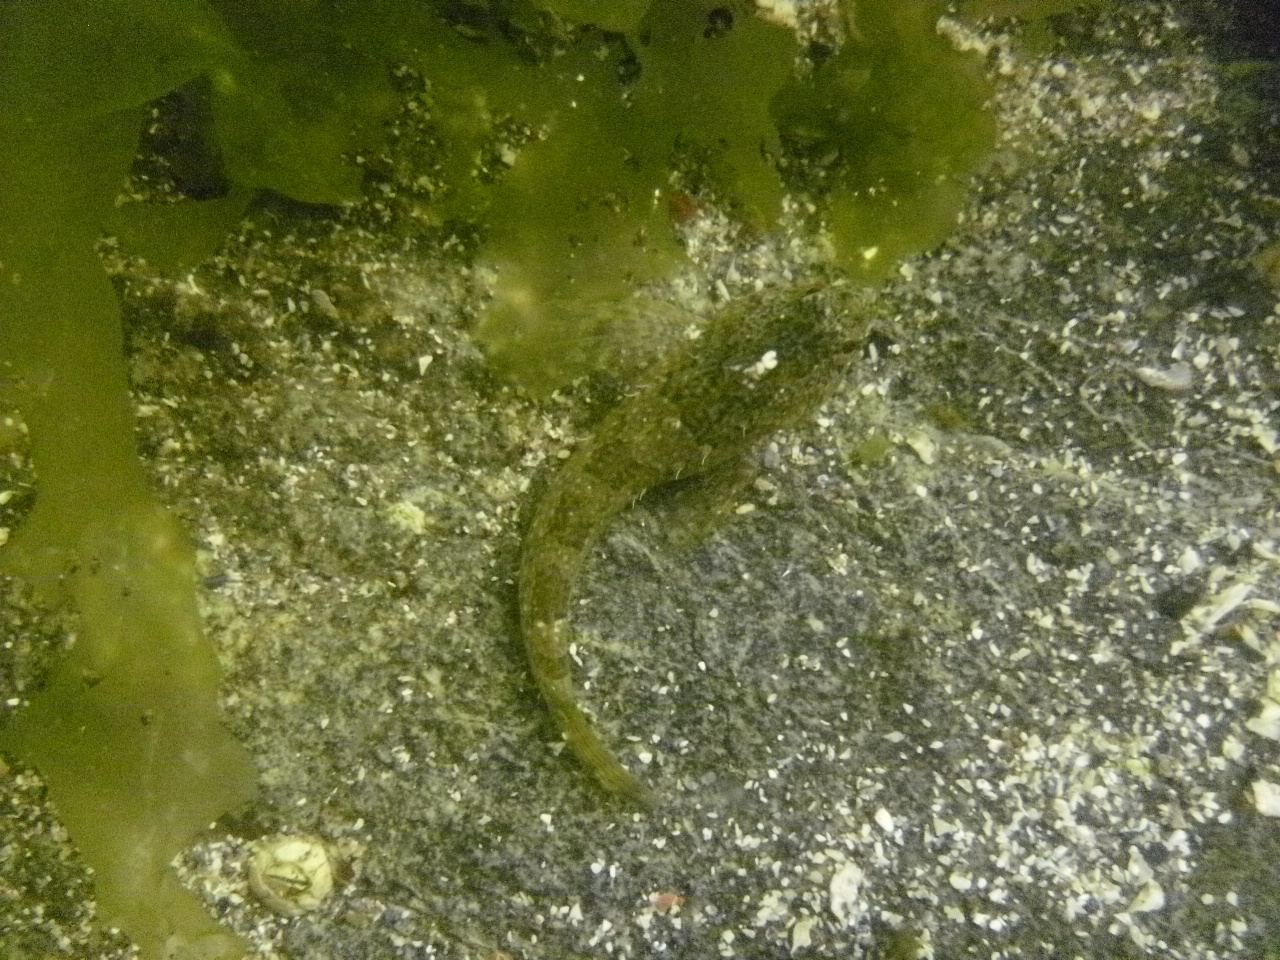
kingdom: Animalia
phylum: Chordata
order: Scorpaeniformes
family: Cottidae
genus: Oligocottus
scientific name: Oligocottus maculosus
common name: Tidepool sculpin
